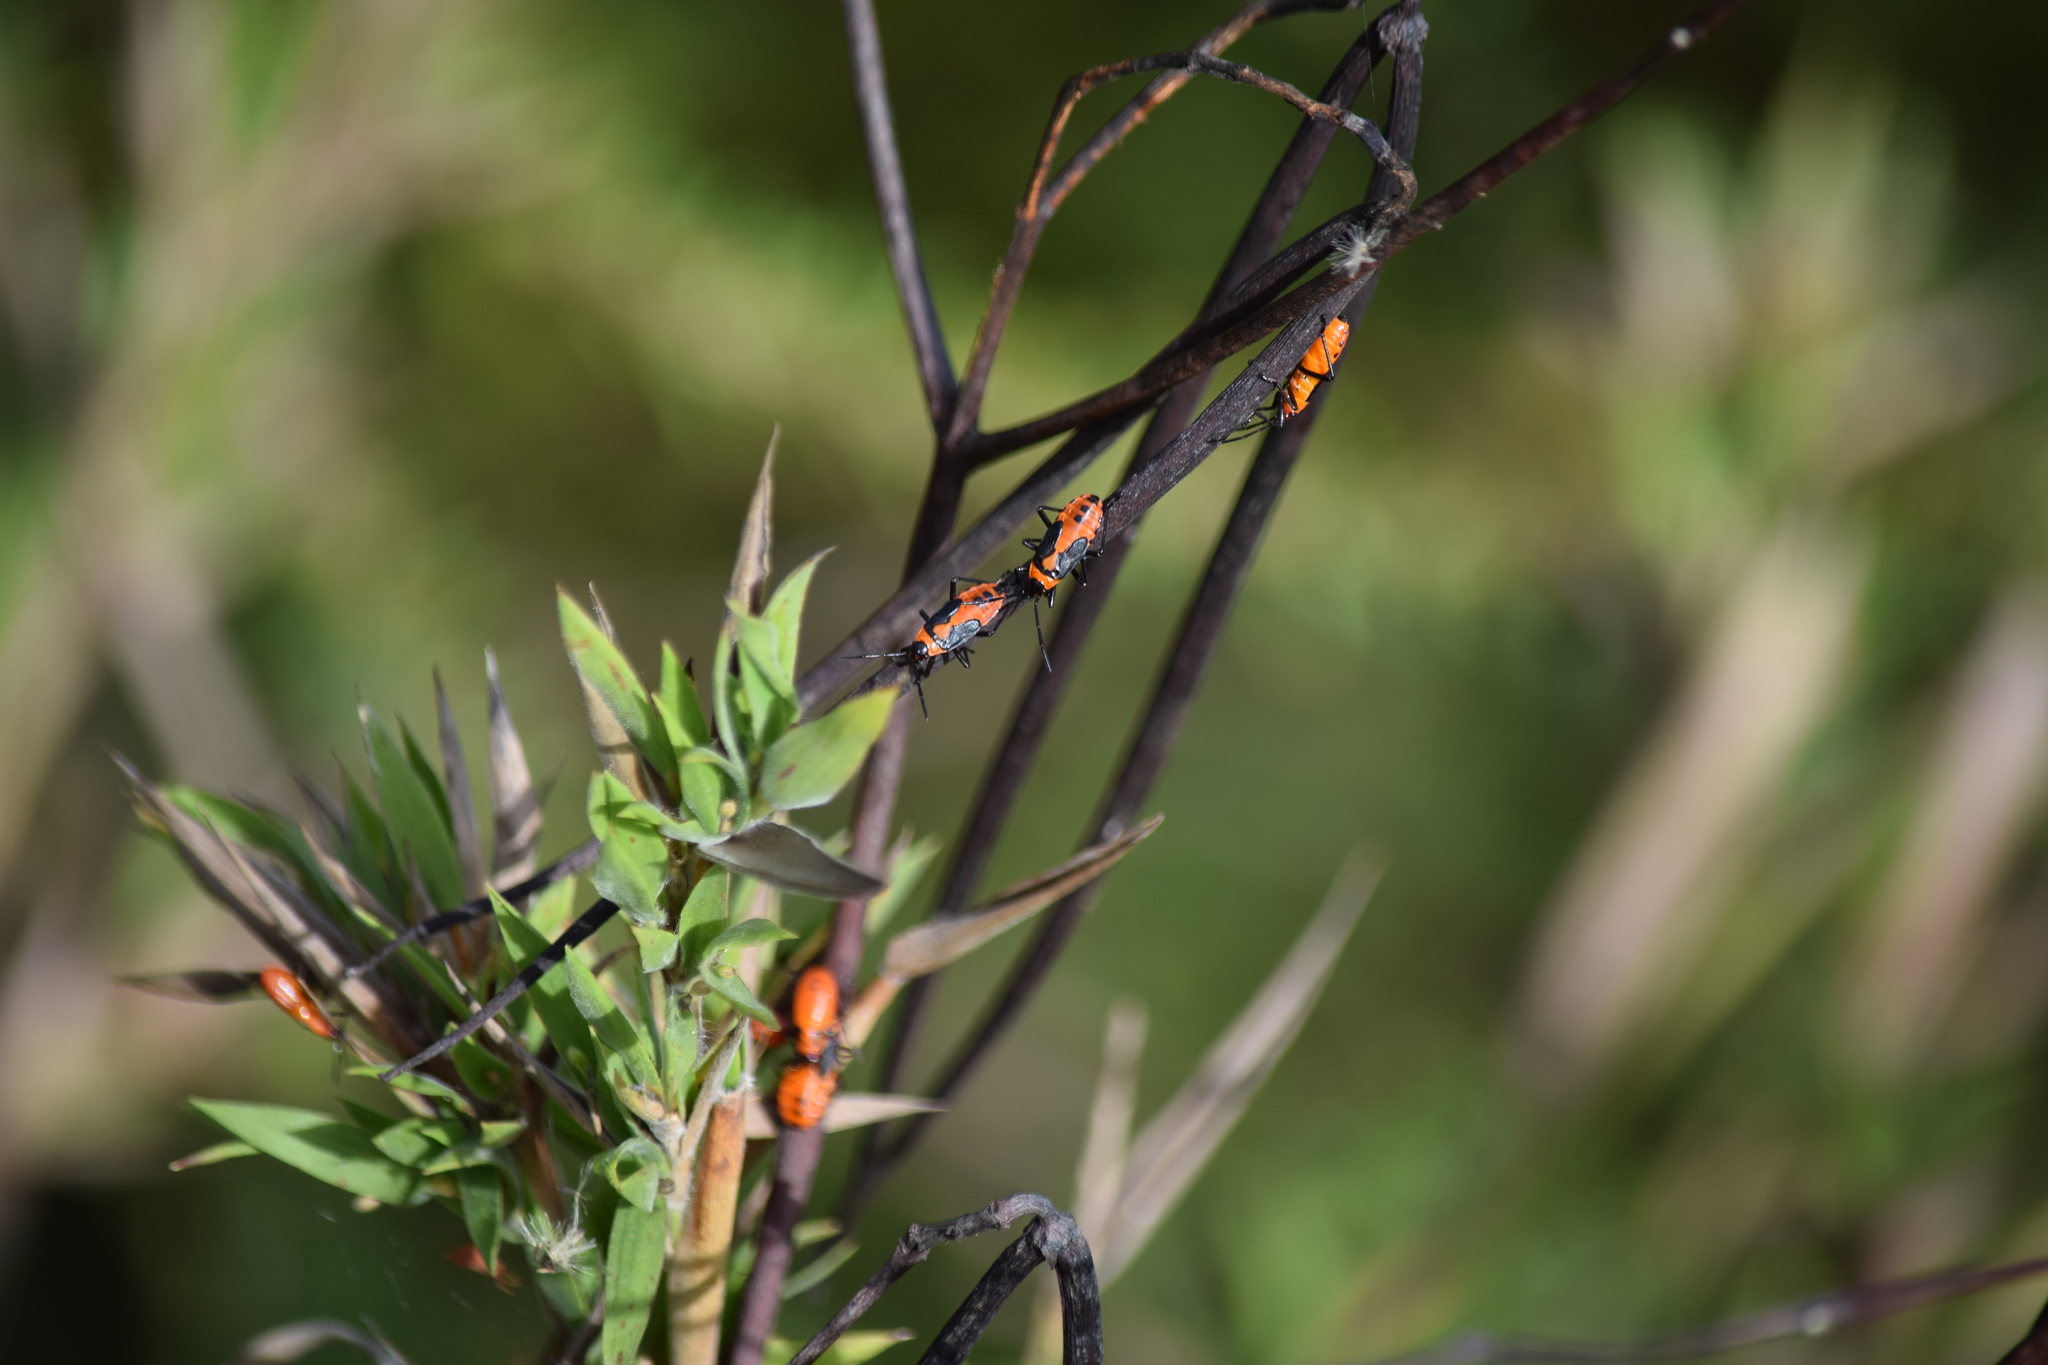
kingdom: Animalia
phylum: Arthropoda
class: Insecta
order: Hemiptera
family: Lygaeidae
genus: Oncopeltus
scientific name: Oncopeltus fasciatus
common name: Large milkweed bug
